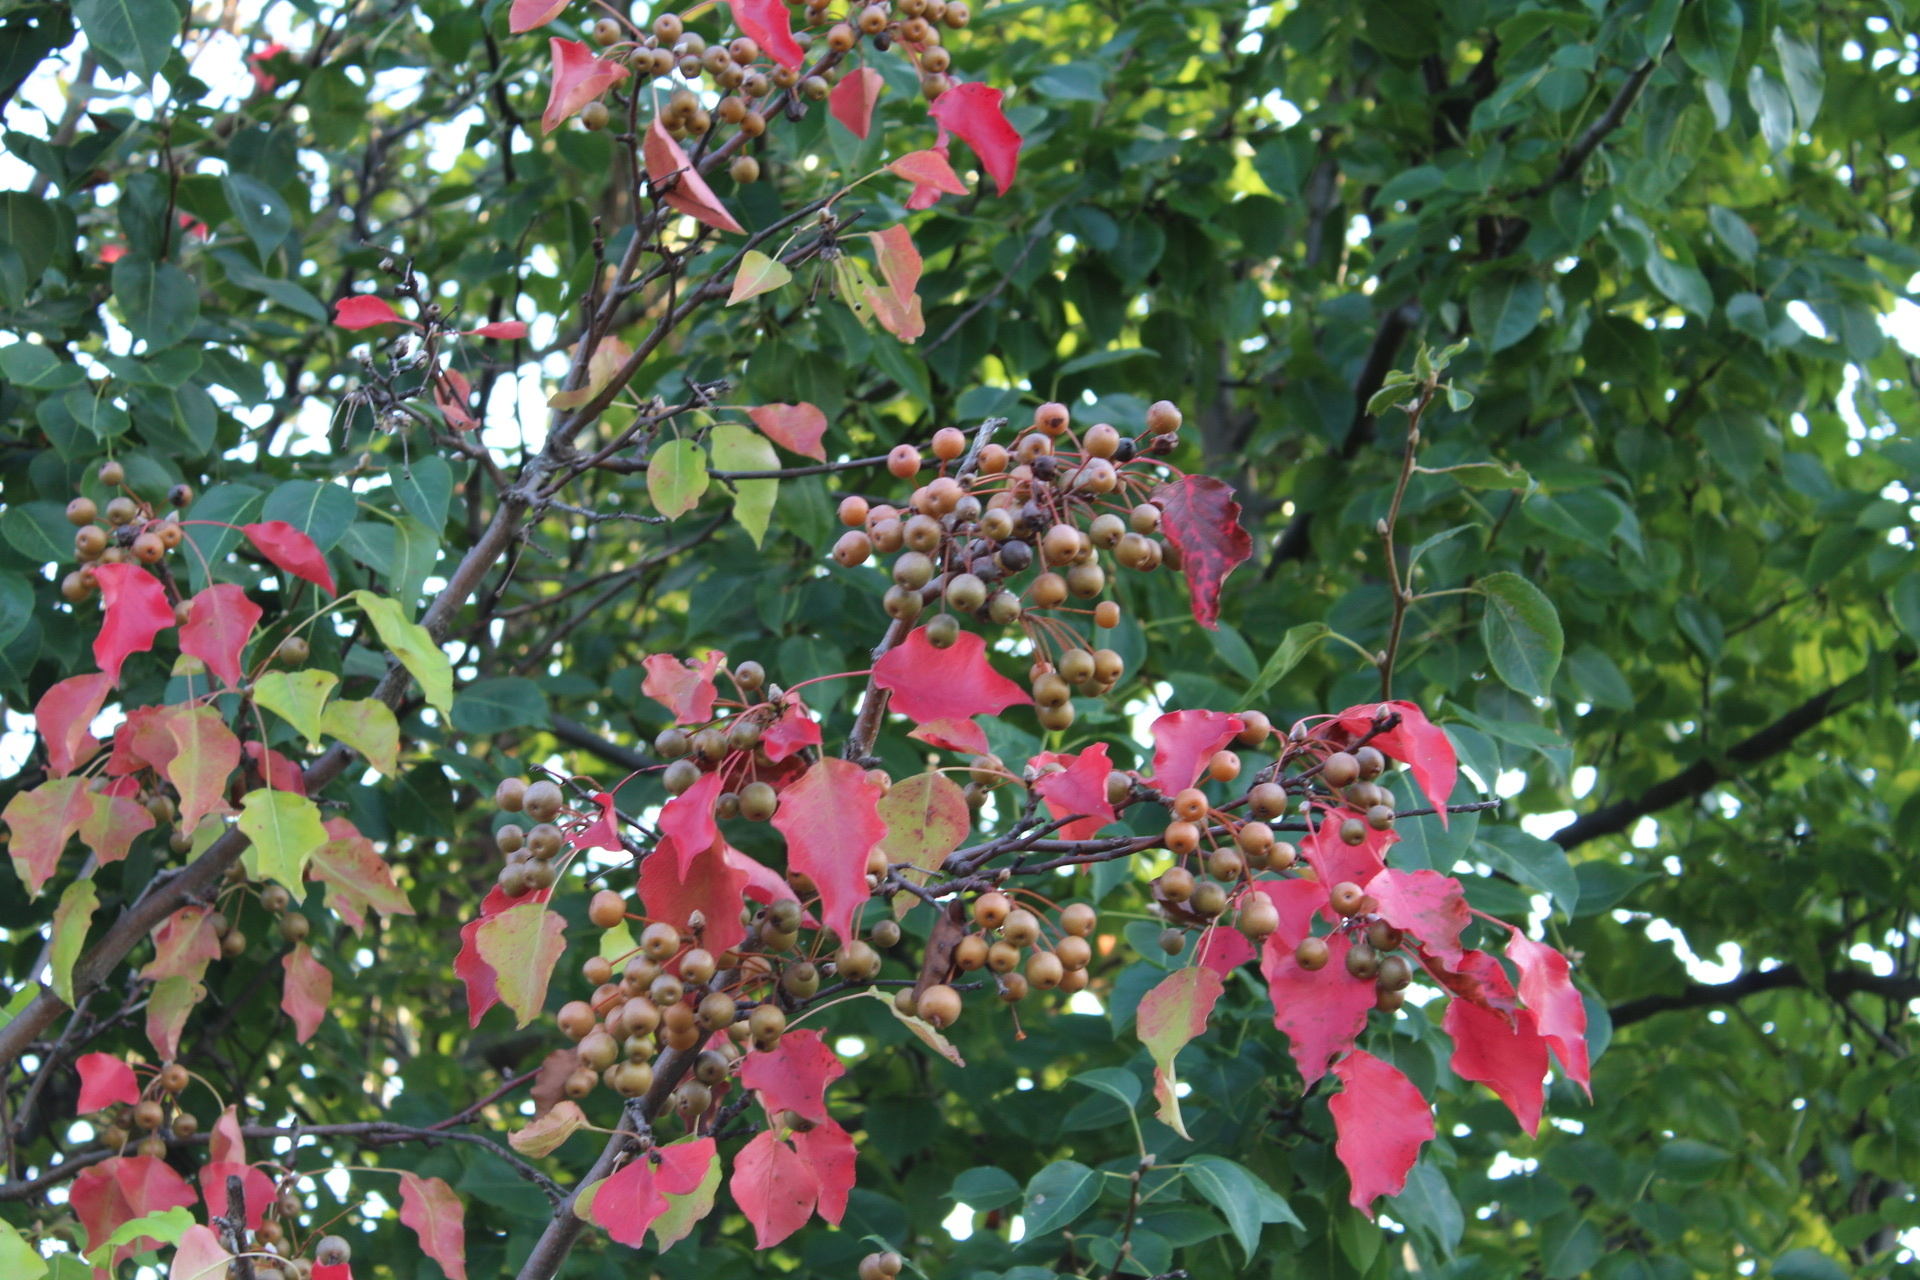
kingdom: Plantae
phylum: Tracheophyta
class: Magnoliopsida
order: Rosales
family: Rosaceae
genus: Pyrus
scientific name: Pyrus calleryana
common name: Callery pear
